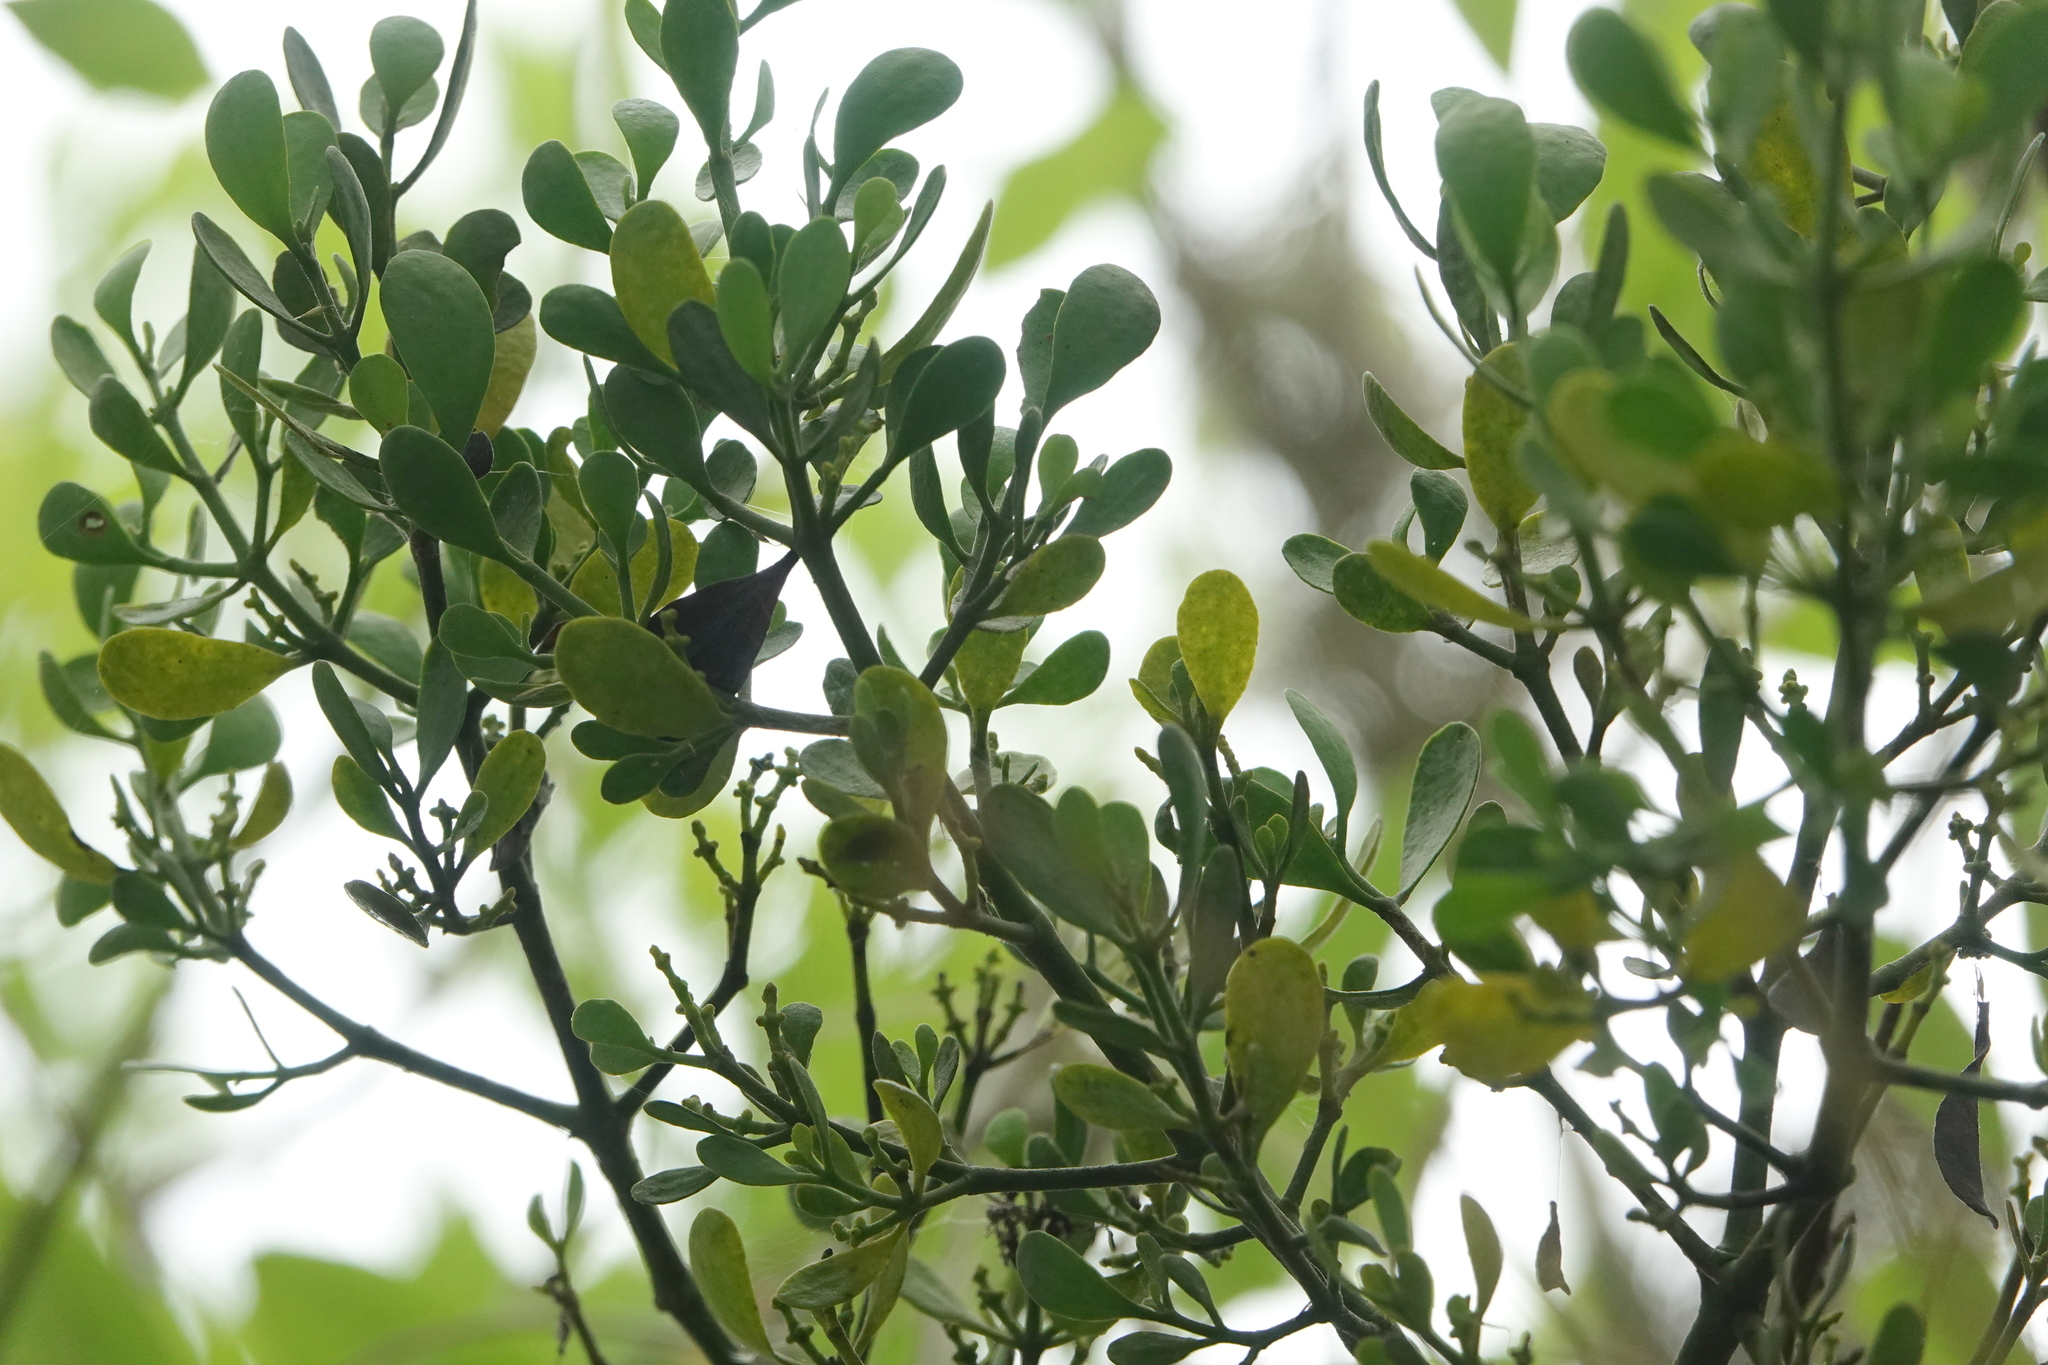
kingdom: Plantae
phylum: Tracheophyta
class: Magnoliopsida
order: Santalales
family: Viscaceae
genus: Phoradendron
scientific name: Phoradendron leucarpum
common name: Pacific mistletoe
